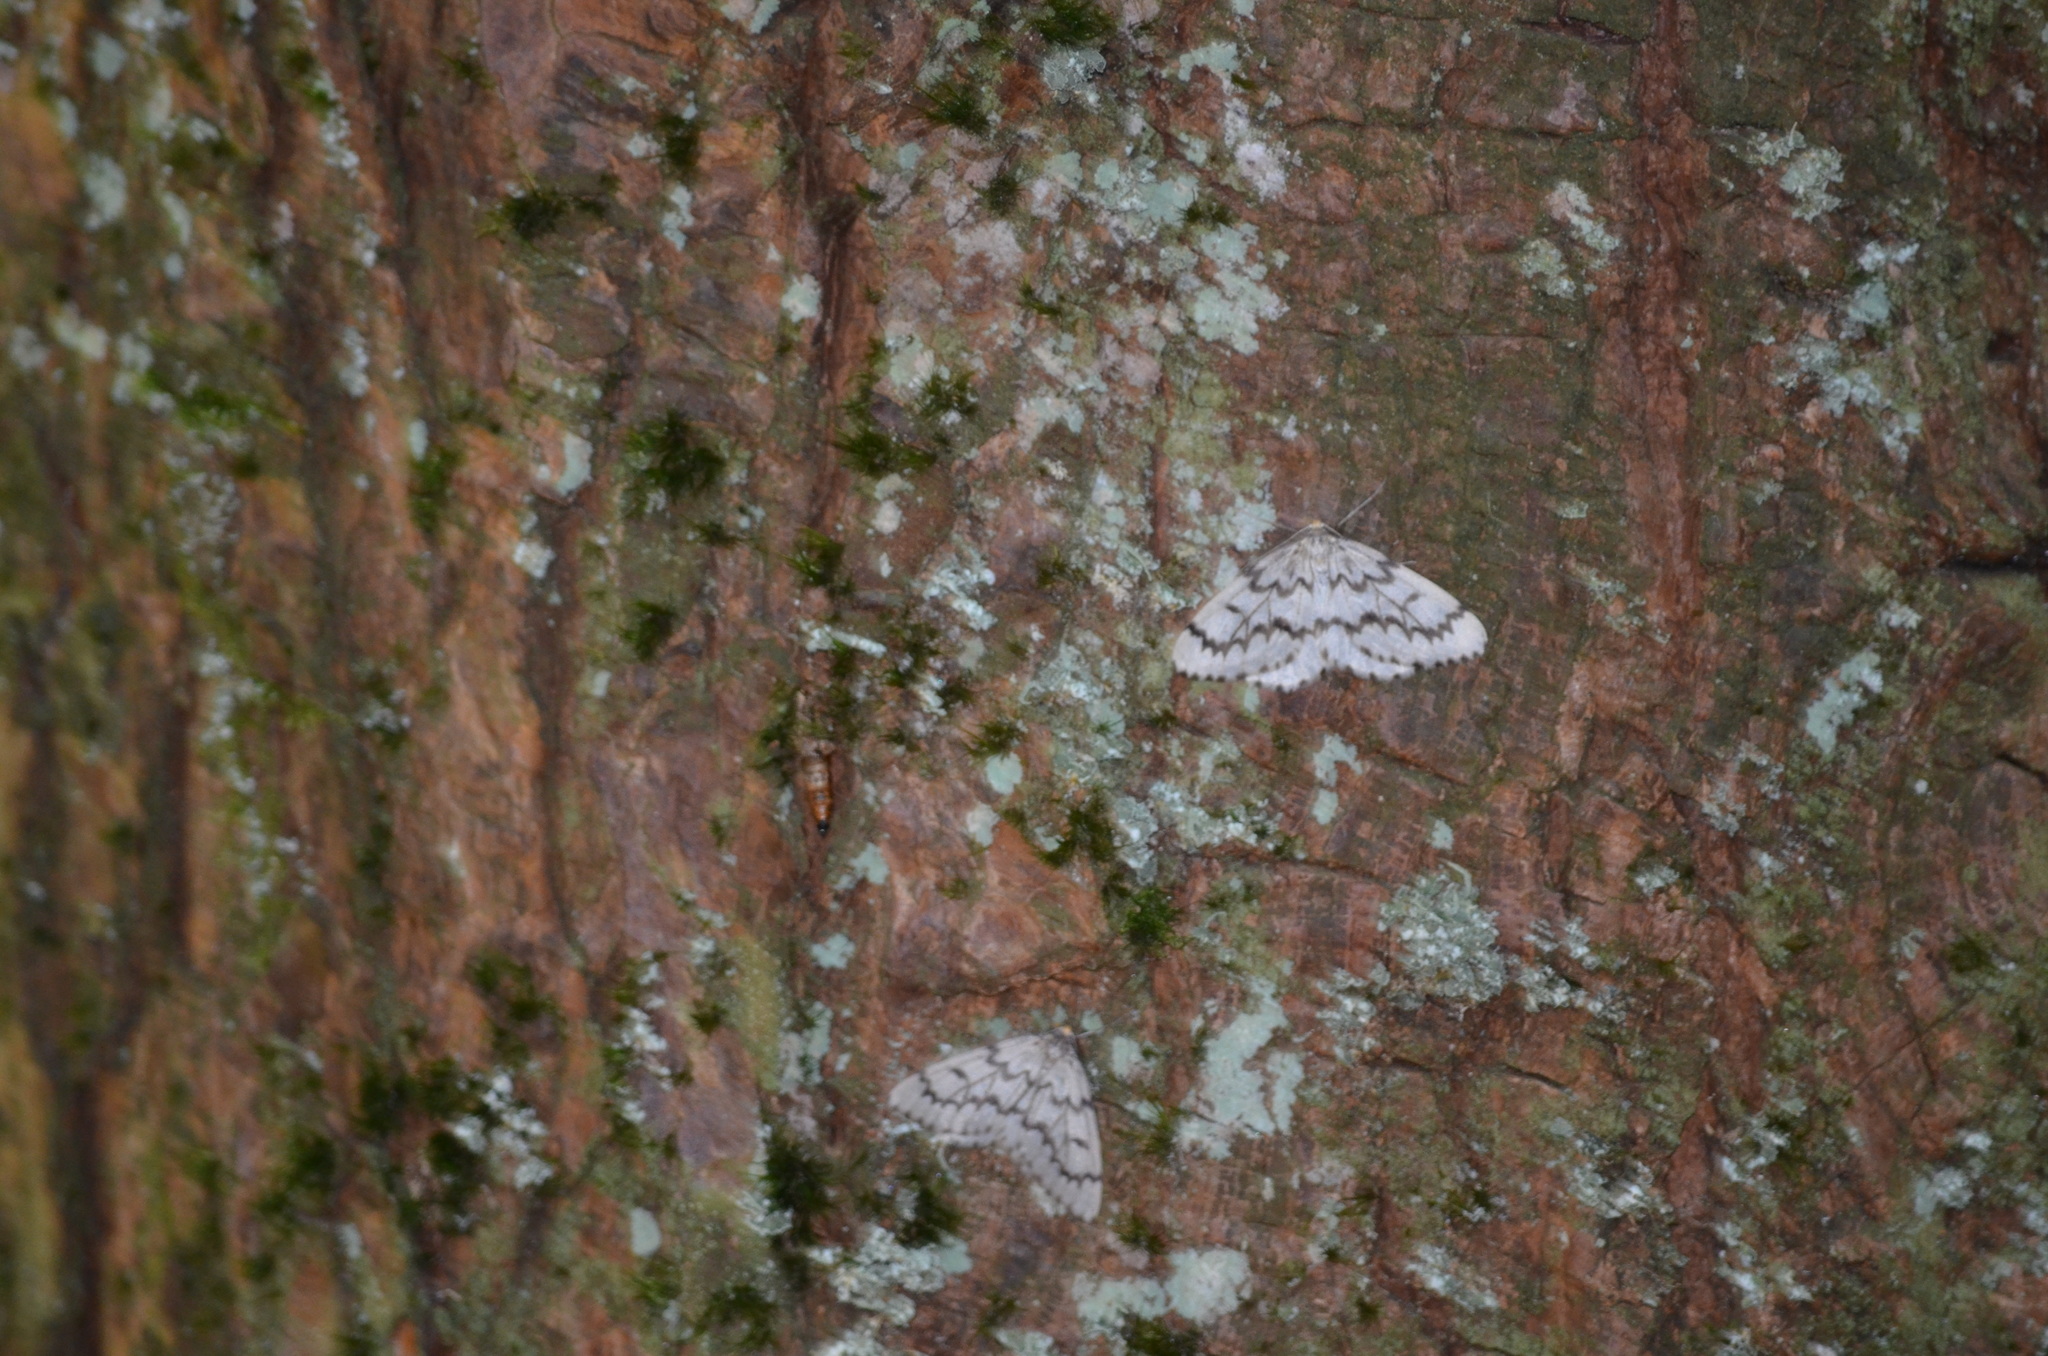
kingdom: Animalia
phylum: Arthropoda
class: Insecta
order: Lepidoptera
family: Geometridae
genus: Nepytia
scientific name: Nepytia phantasmaria
